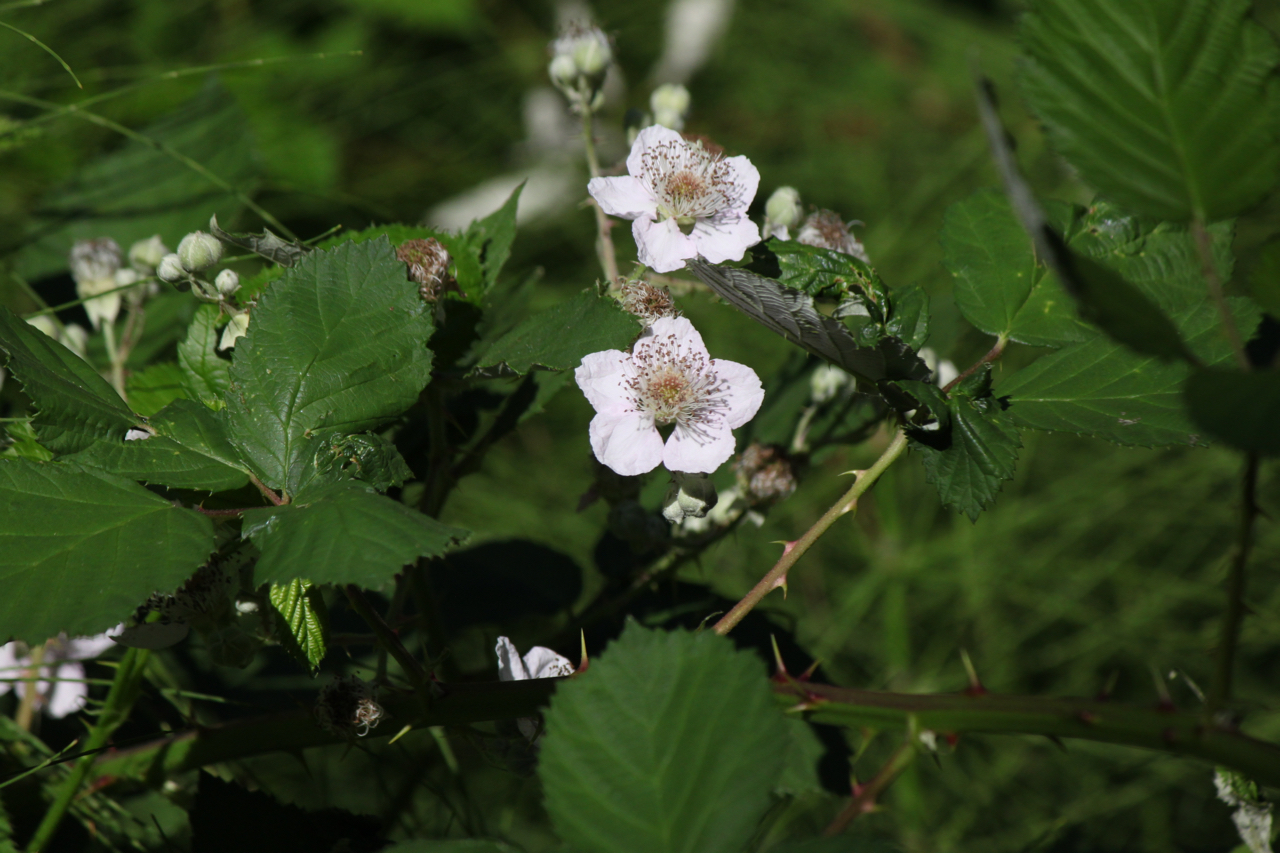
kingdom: Plantae
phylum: Tracheophyta
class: Magnoliopsida
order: Rosales
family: Rosaceae
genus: Rubus
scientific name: Rubus bifrons
